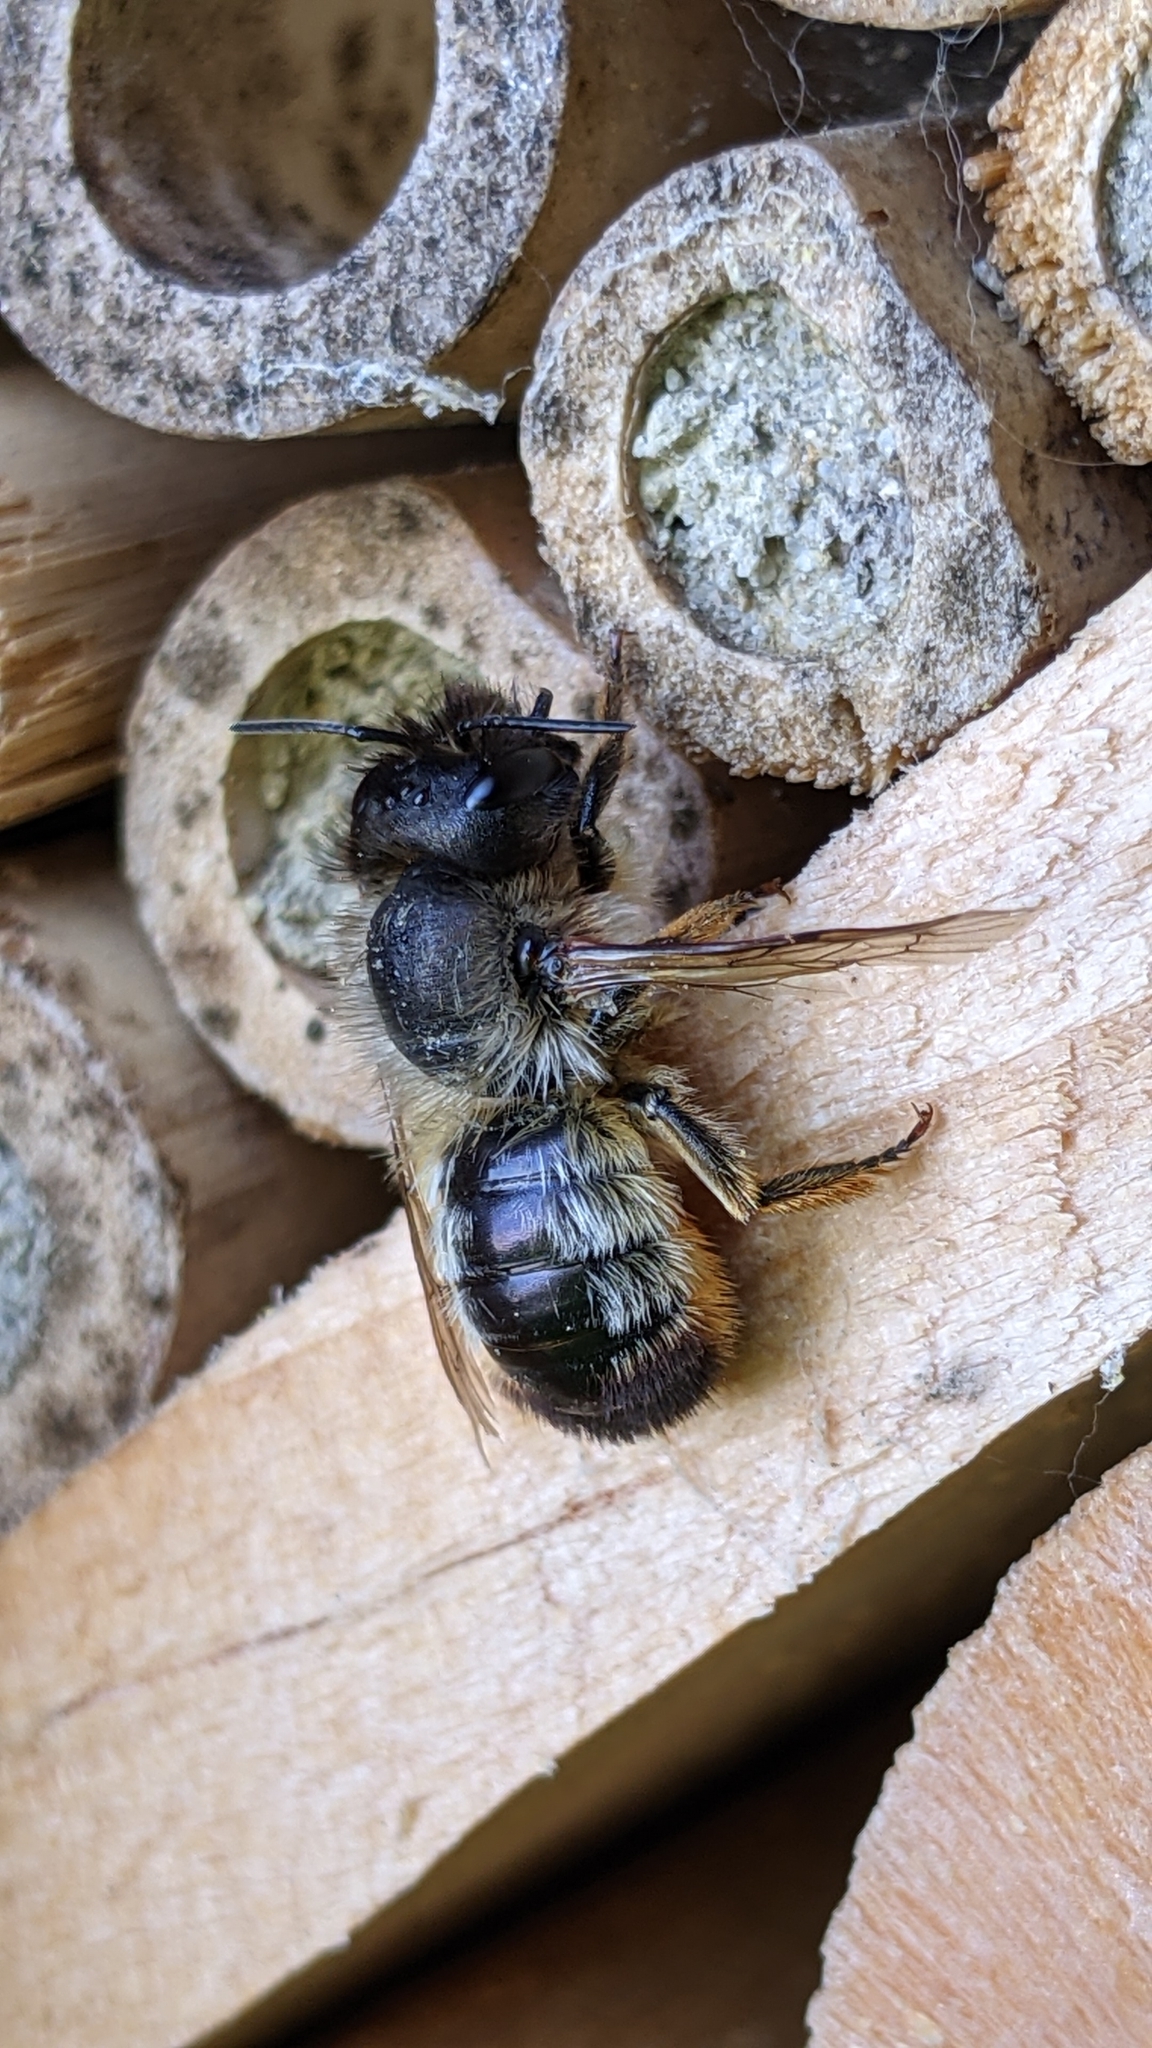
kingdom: Animalia
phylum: Arthropoda
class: Insecta
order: Hymenoptera
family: Megachilidae
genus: Osmia
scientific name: Osmia bicornis
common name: Red mason bee
